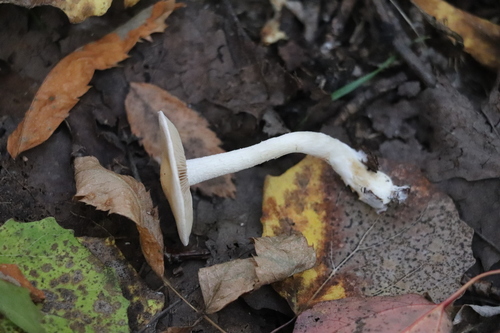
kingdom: Fungi
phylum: Basidiomycota
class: Agaricomycetes
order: Agaricales
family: Hymenogastraceae
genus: Hebeloma
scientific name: Hebeloma leucosarx
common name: Birch poisonpie
